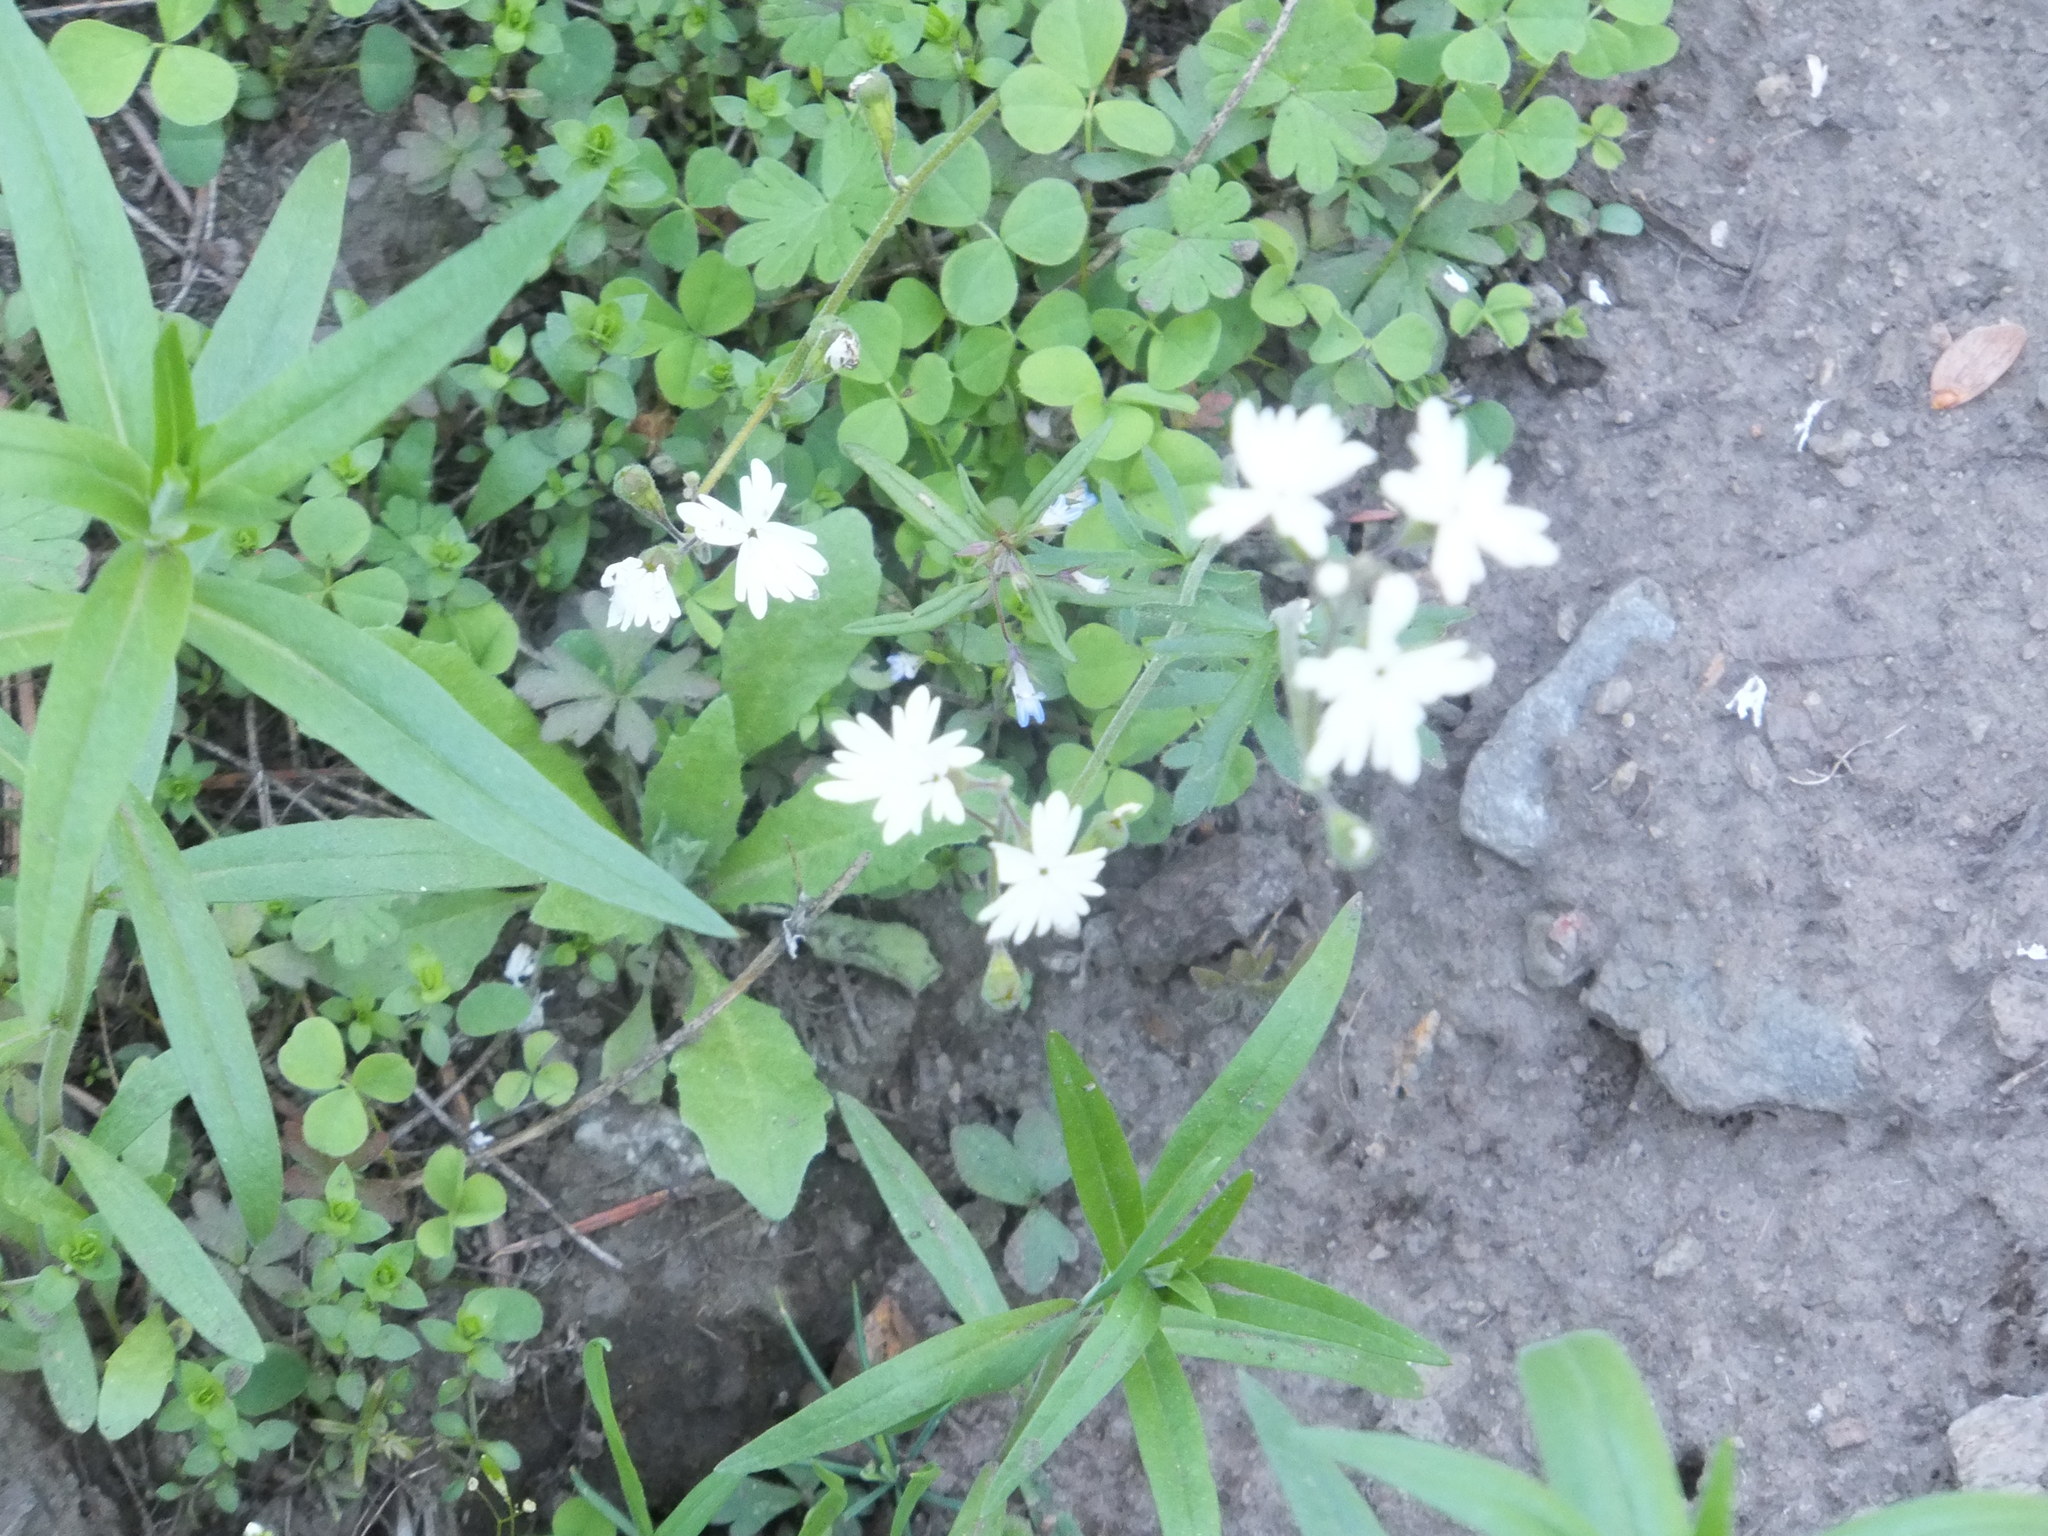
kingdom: Plantae
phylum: Tracheophyta
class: Magnoliopsida
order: Saxifragales
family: Saxifragaceae
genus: Lithophragma
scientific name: Lithophragma parviflorum
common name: Small-flowered fringe-cup
